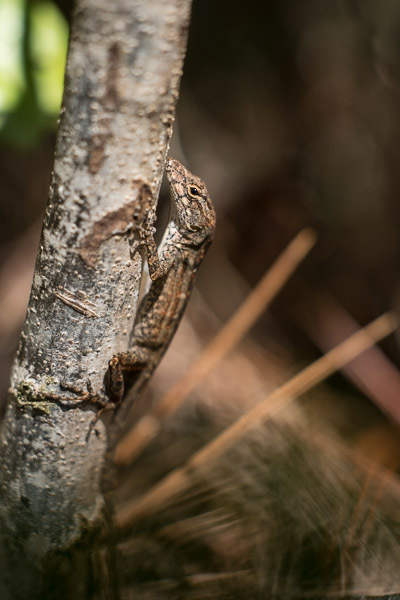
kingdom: Animalia
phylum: Chordata
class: Squamata
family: Dactyloidae
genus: Anolis
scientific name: Anolis sagrei
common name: Brown anole
